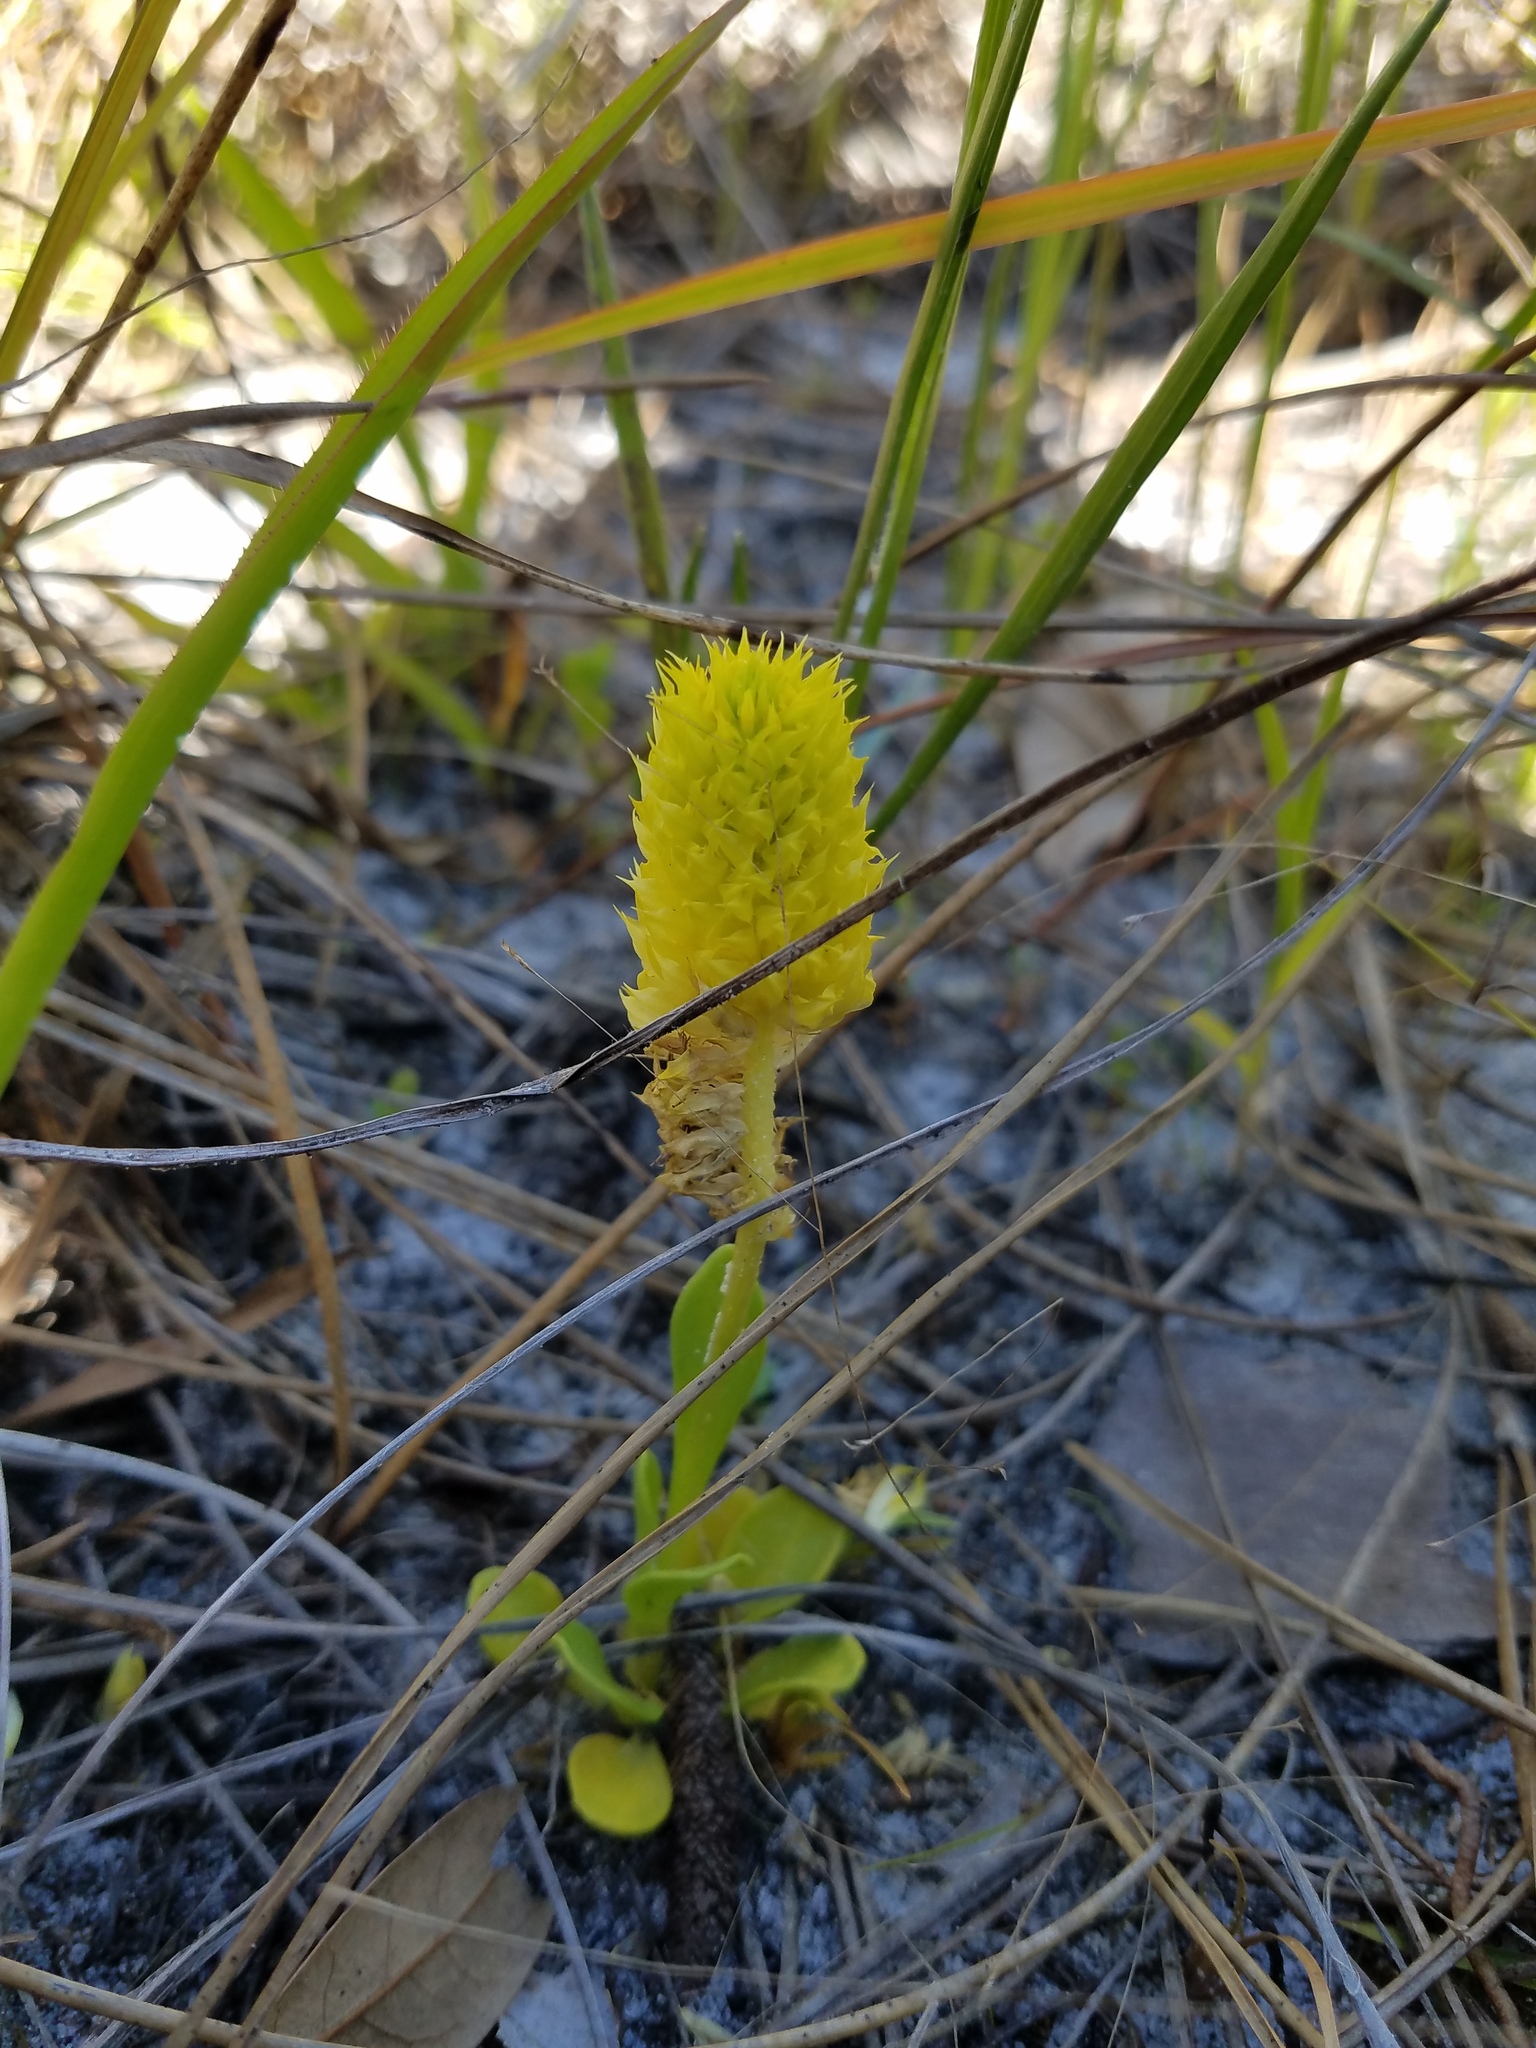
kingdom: Plantae
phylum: Tracheophyta
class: Magnoliopsida
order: Fabales
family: Polygalaceae
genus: Polygala
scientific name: Polygala nana
